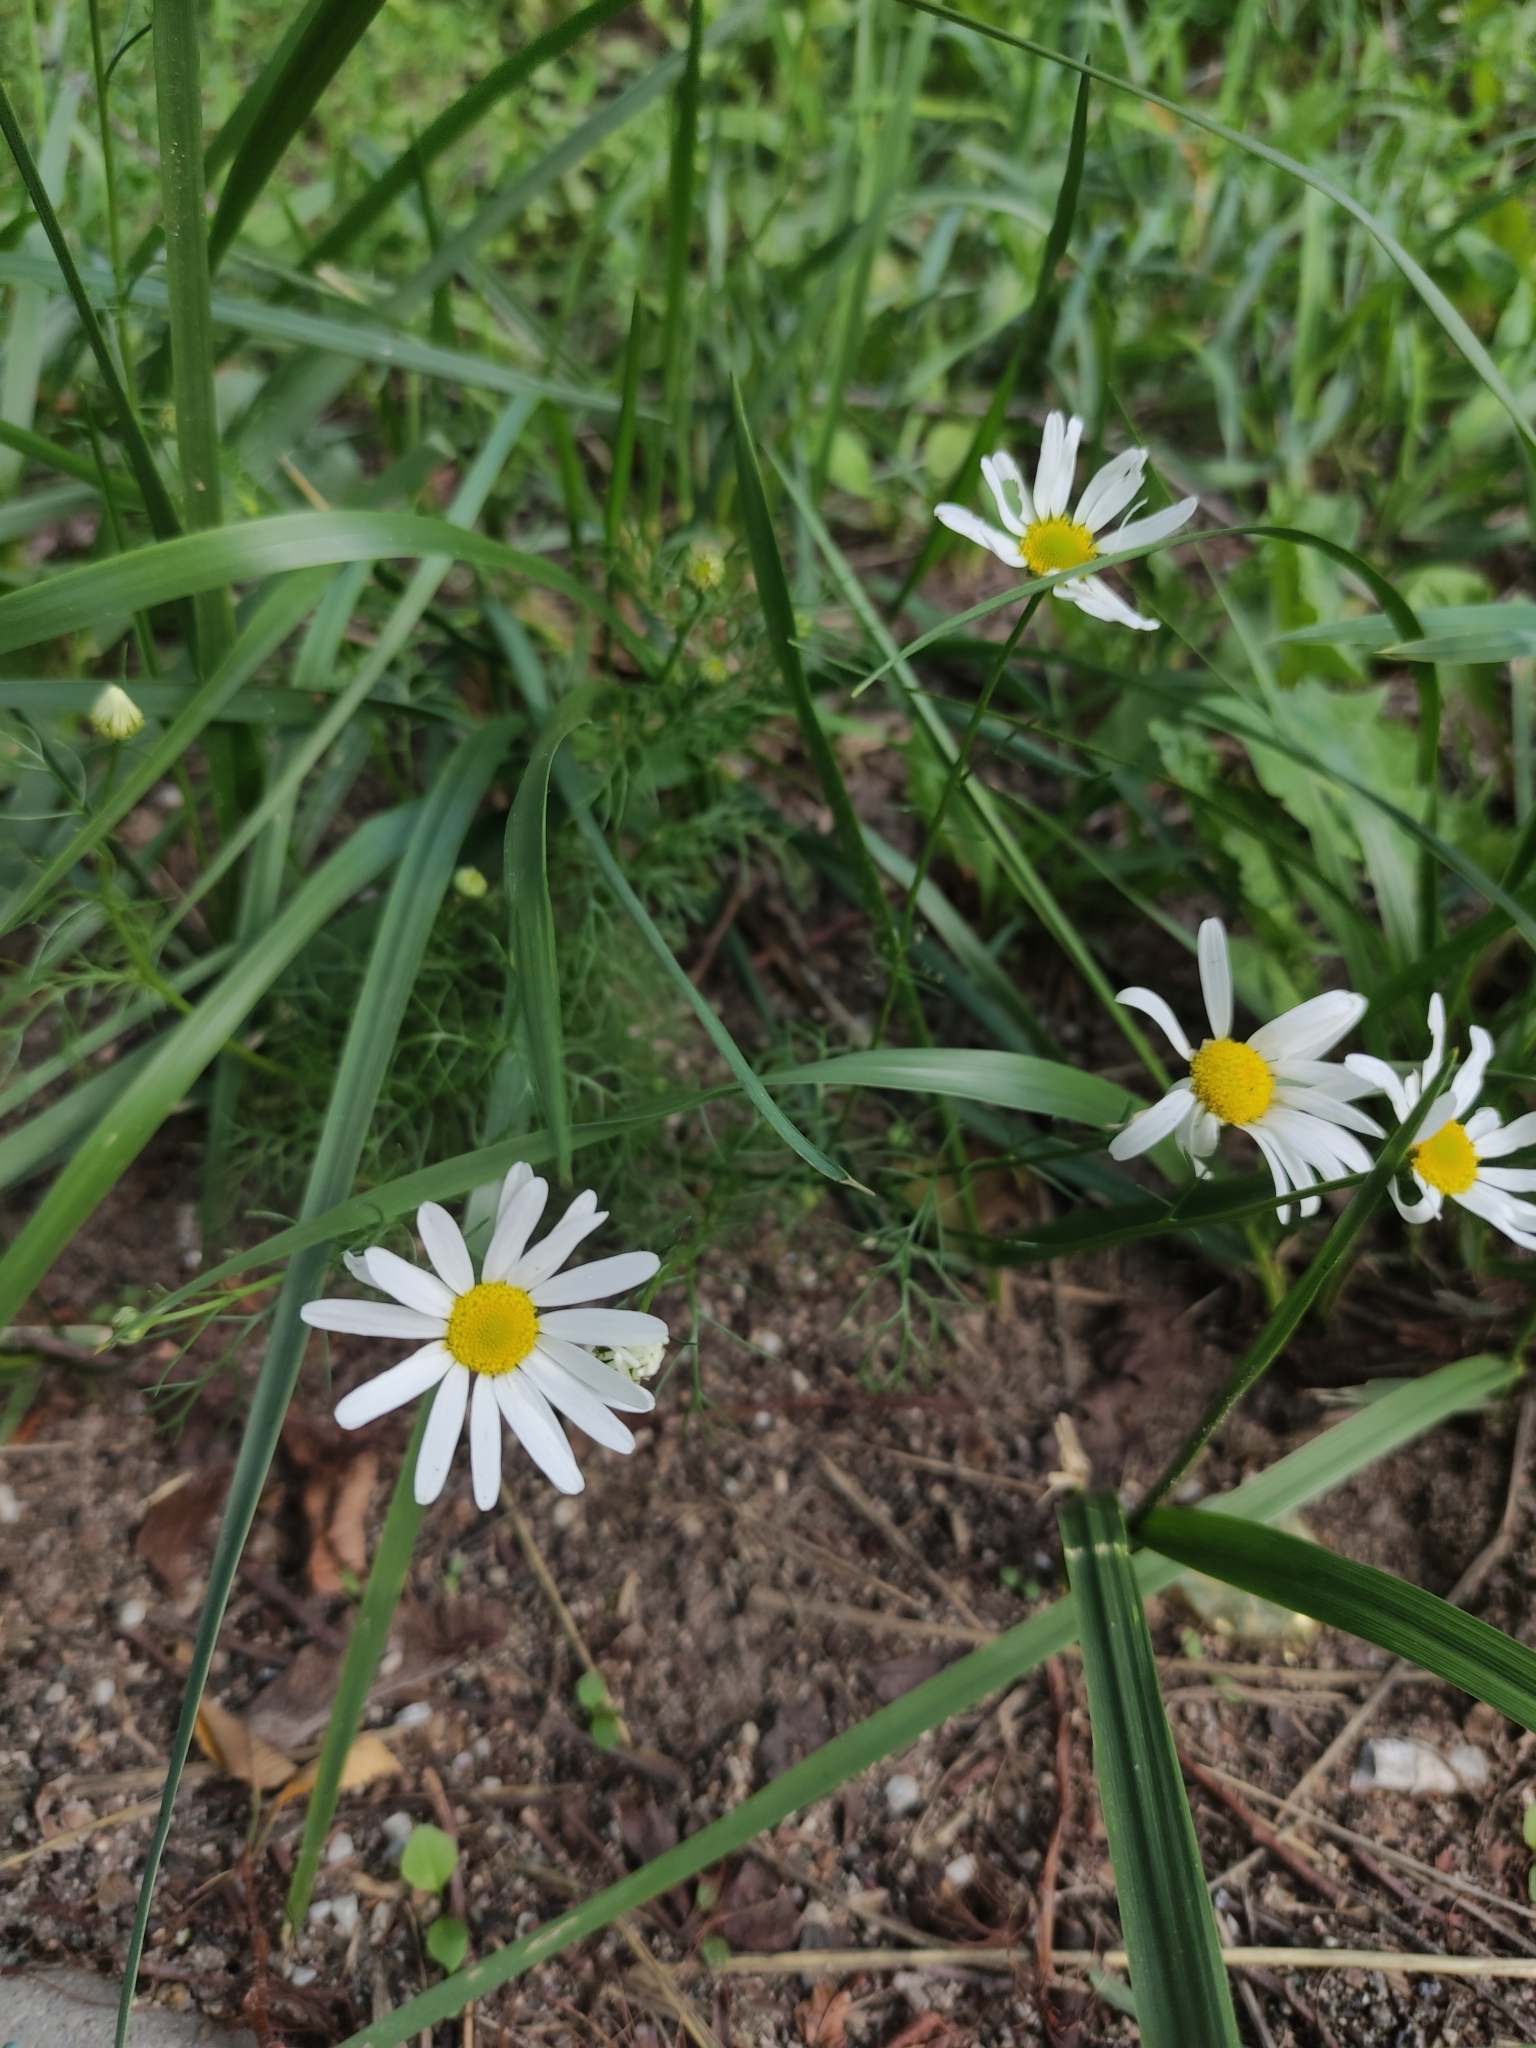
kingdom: Plantae
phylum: Tracheophyta
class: Magnoliopsida
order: Asterales
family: Asteraceae
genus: Tripleurospermum
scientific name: Tripleurospermum inodorum
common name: Scentless mayweed
